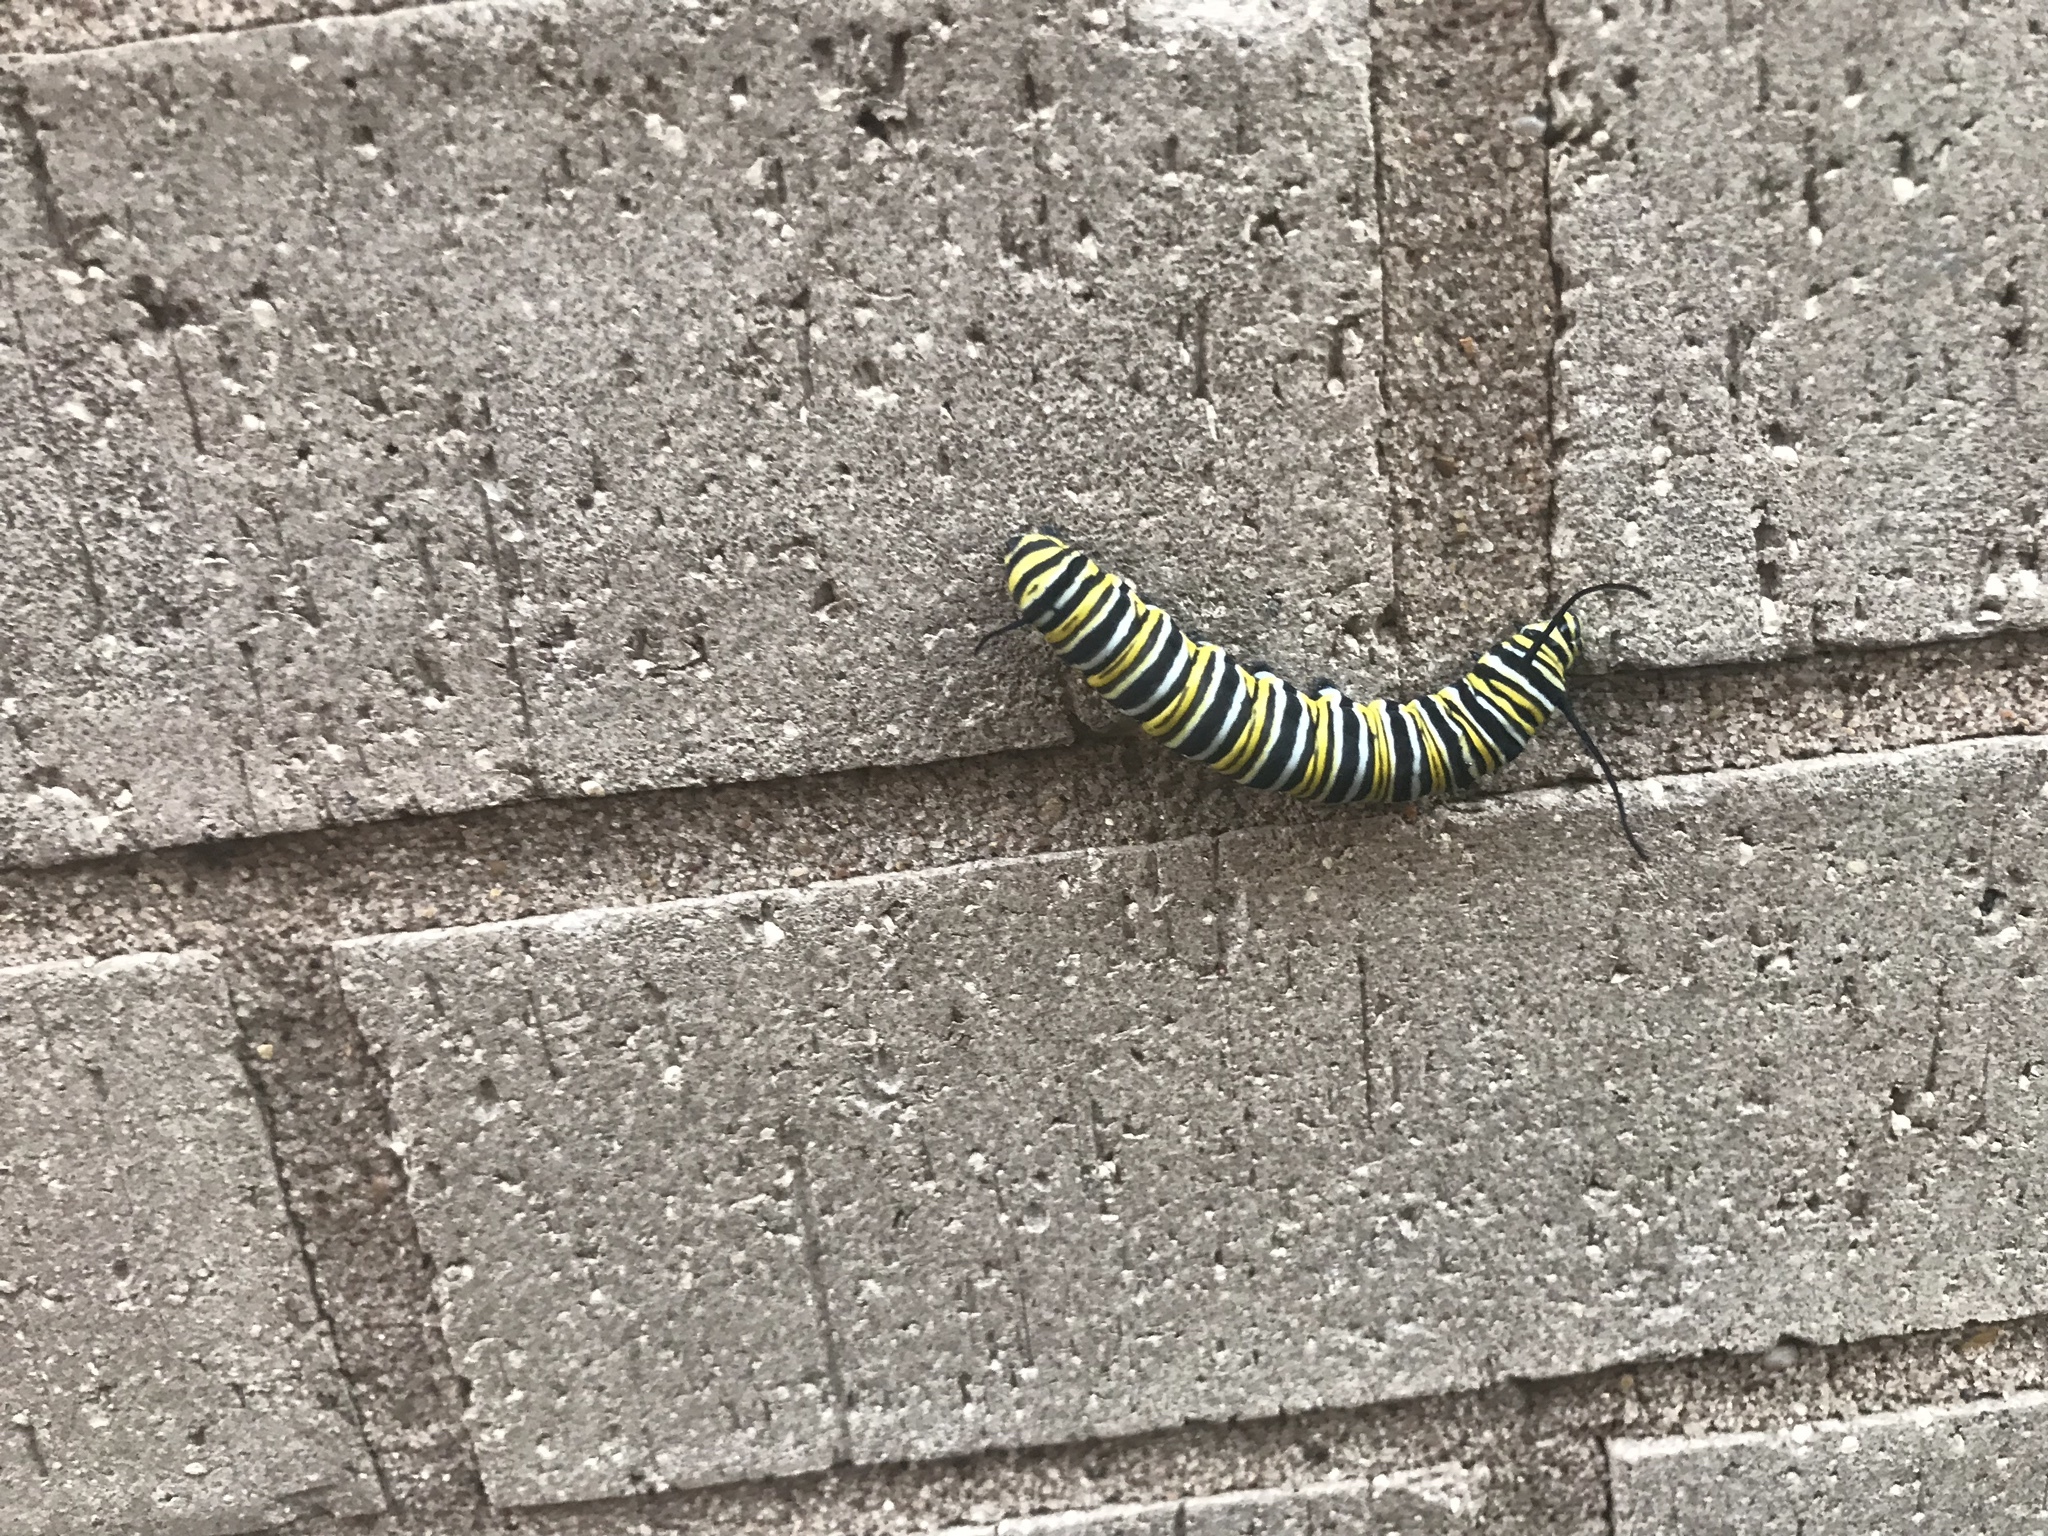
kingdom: Animalia
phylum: Arthropoda
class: Insecta
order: Lepidoptera
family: Nymphalidae
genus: Danaus
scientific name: Danaus plexippus
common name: Monarch
